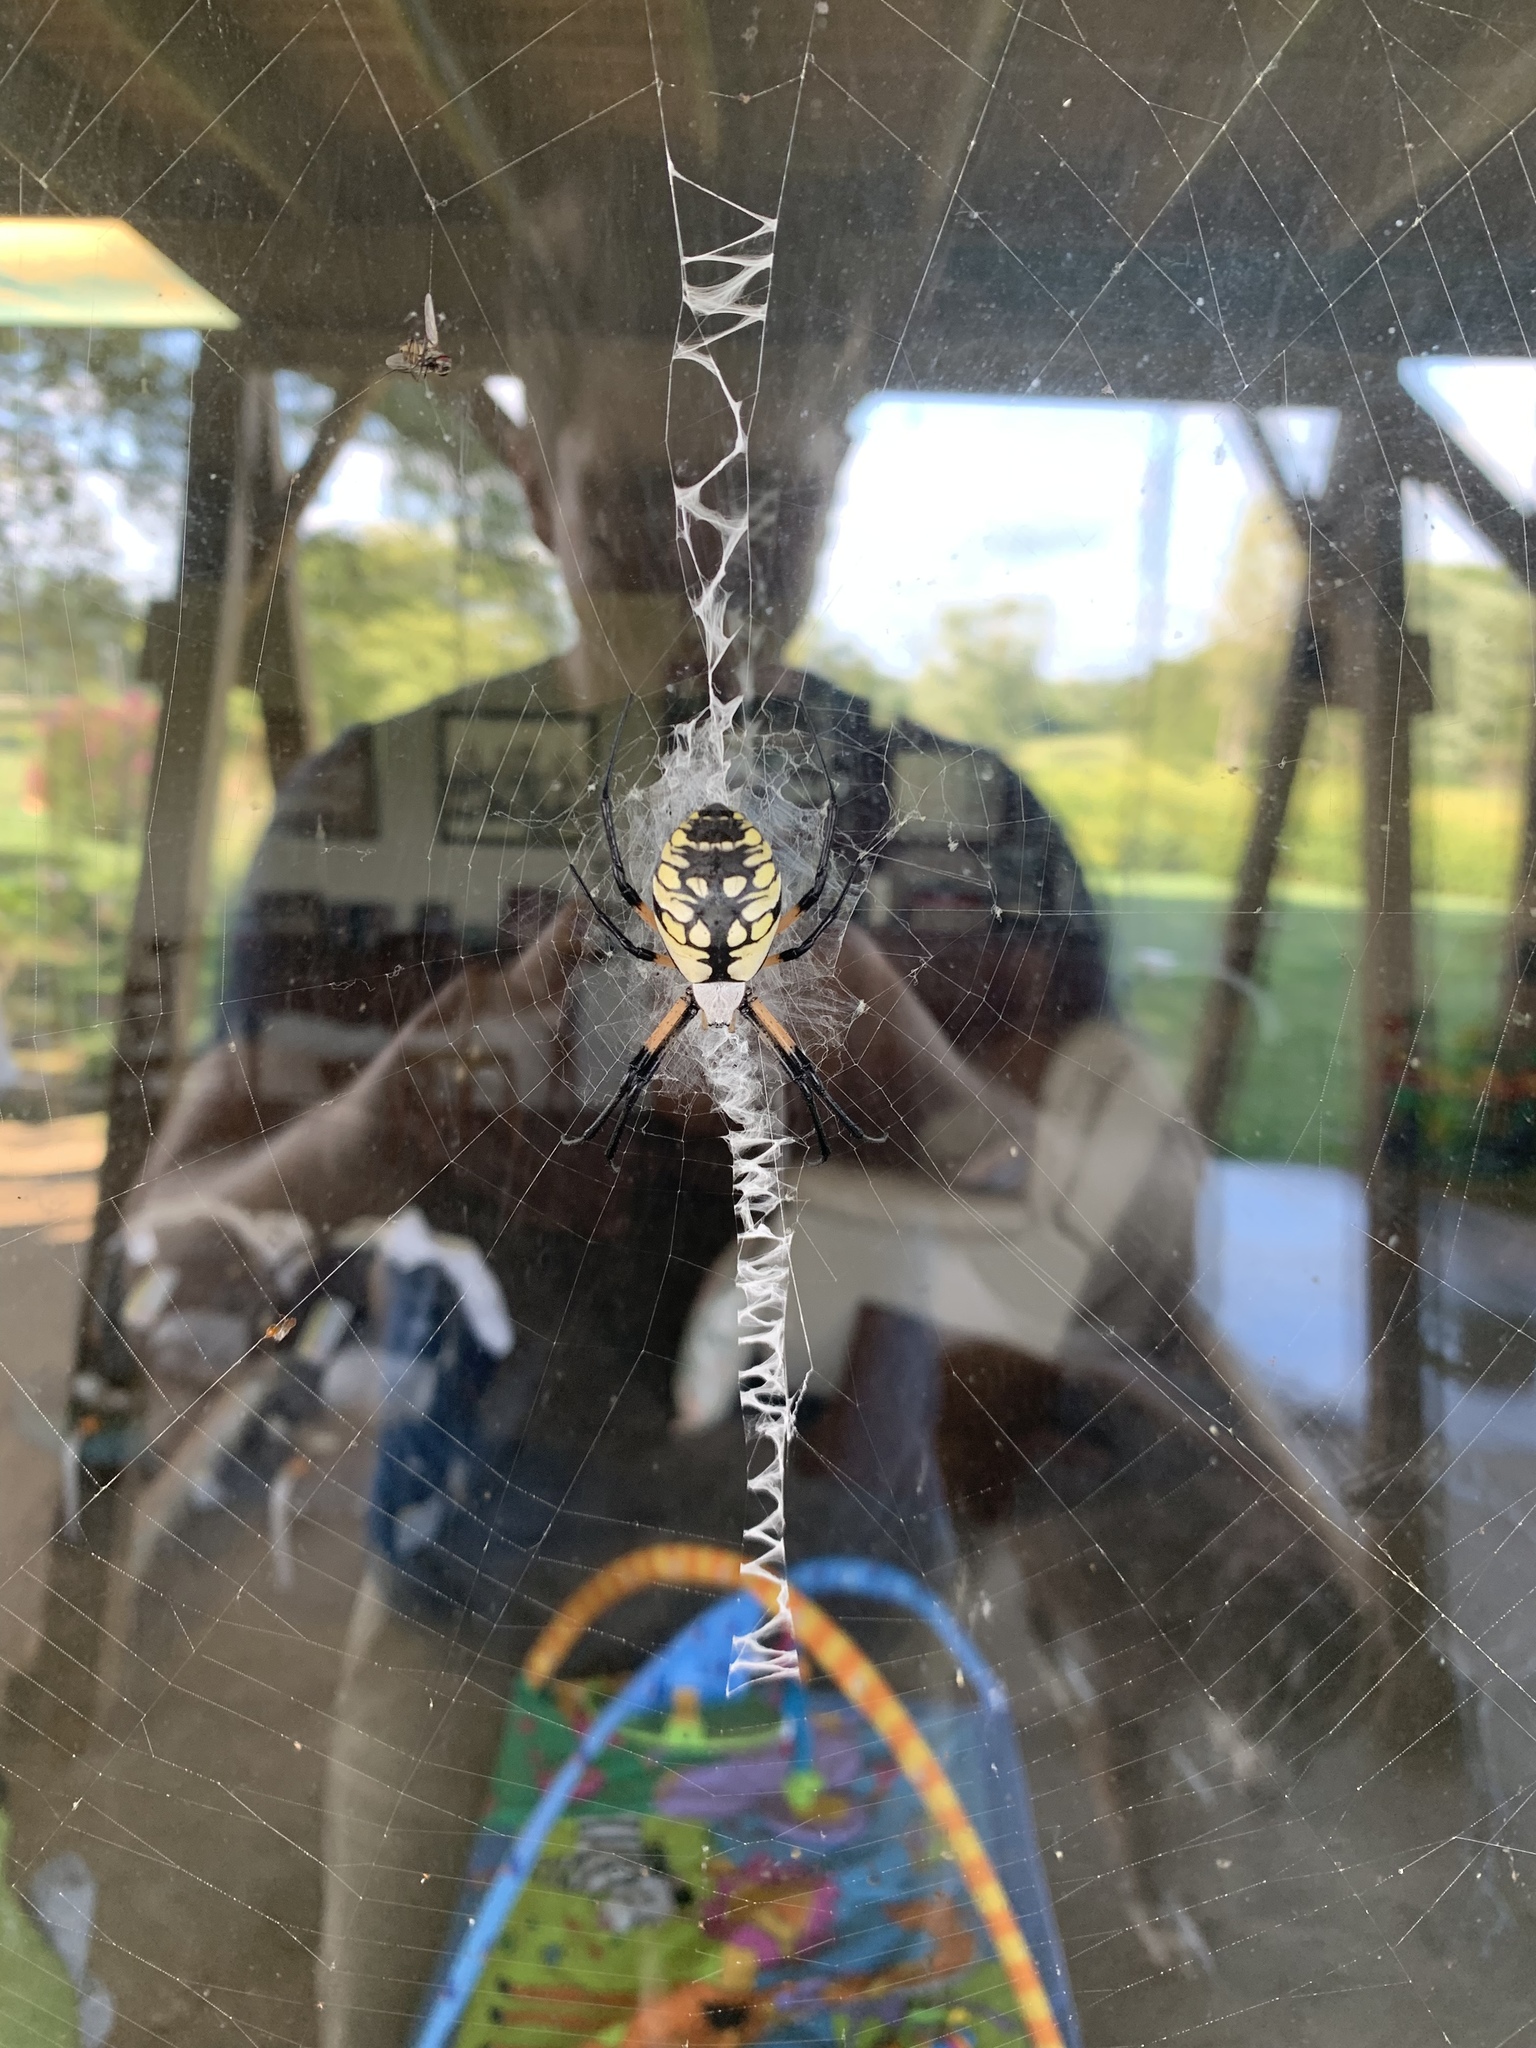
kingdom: Animalia
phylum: Arthropoda
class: Arachnida
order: Araneae
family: Araneidae
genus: Argiope
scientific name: Argiope aurantia
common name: Orb weavers
